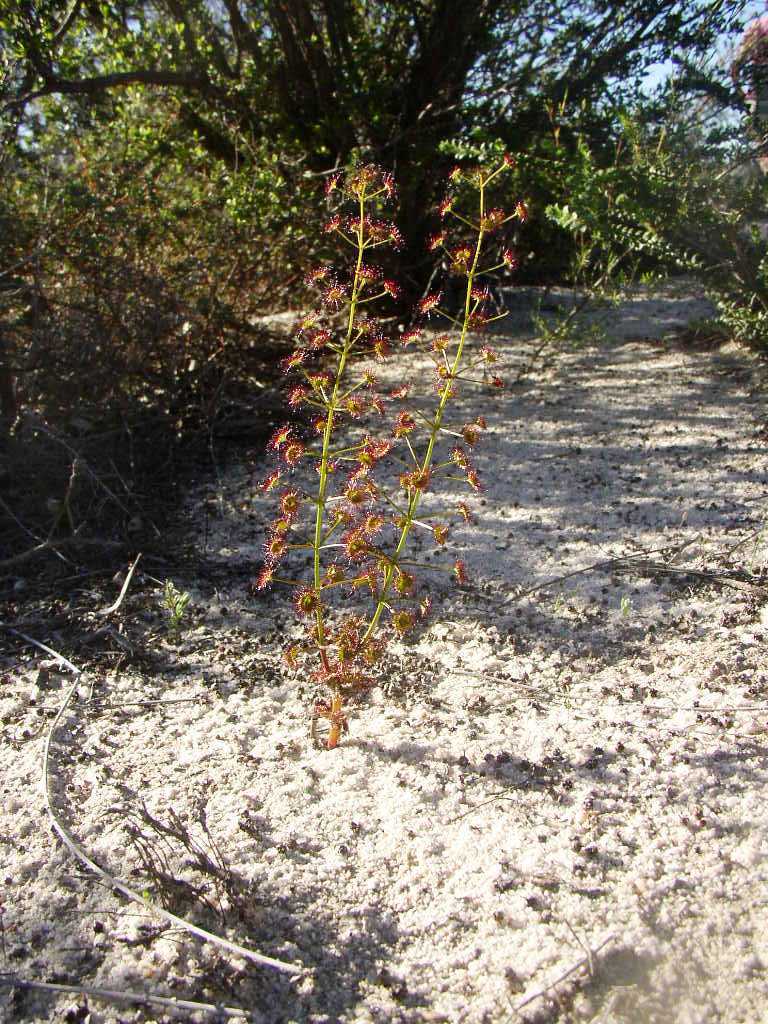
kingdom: Plantae
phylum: Tracheophyta
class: Magnoliopsida
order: Caryophyllales
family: Droseraceae
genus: Drosera
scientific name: Drosera stolonifera
